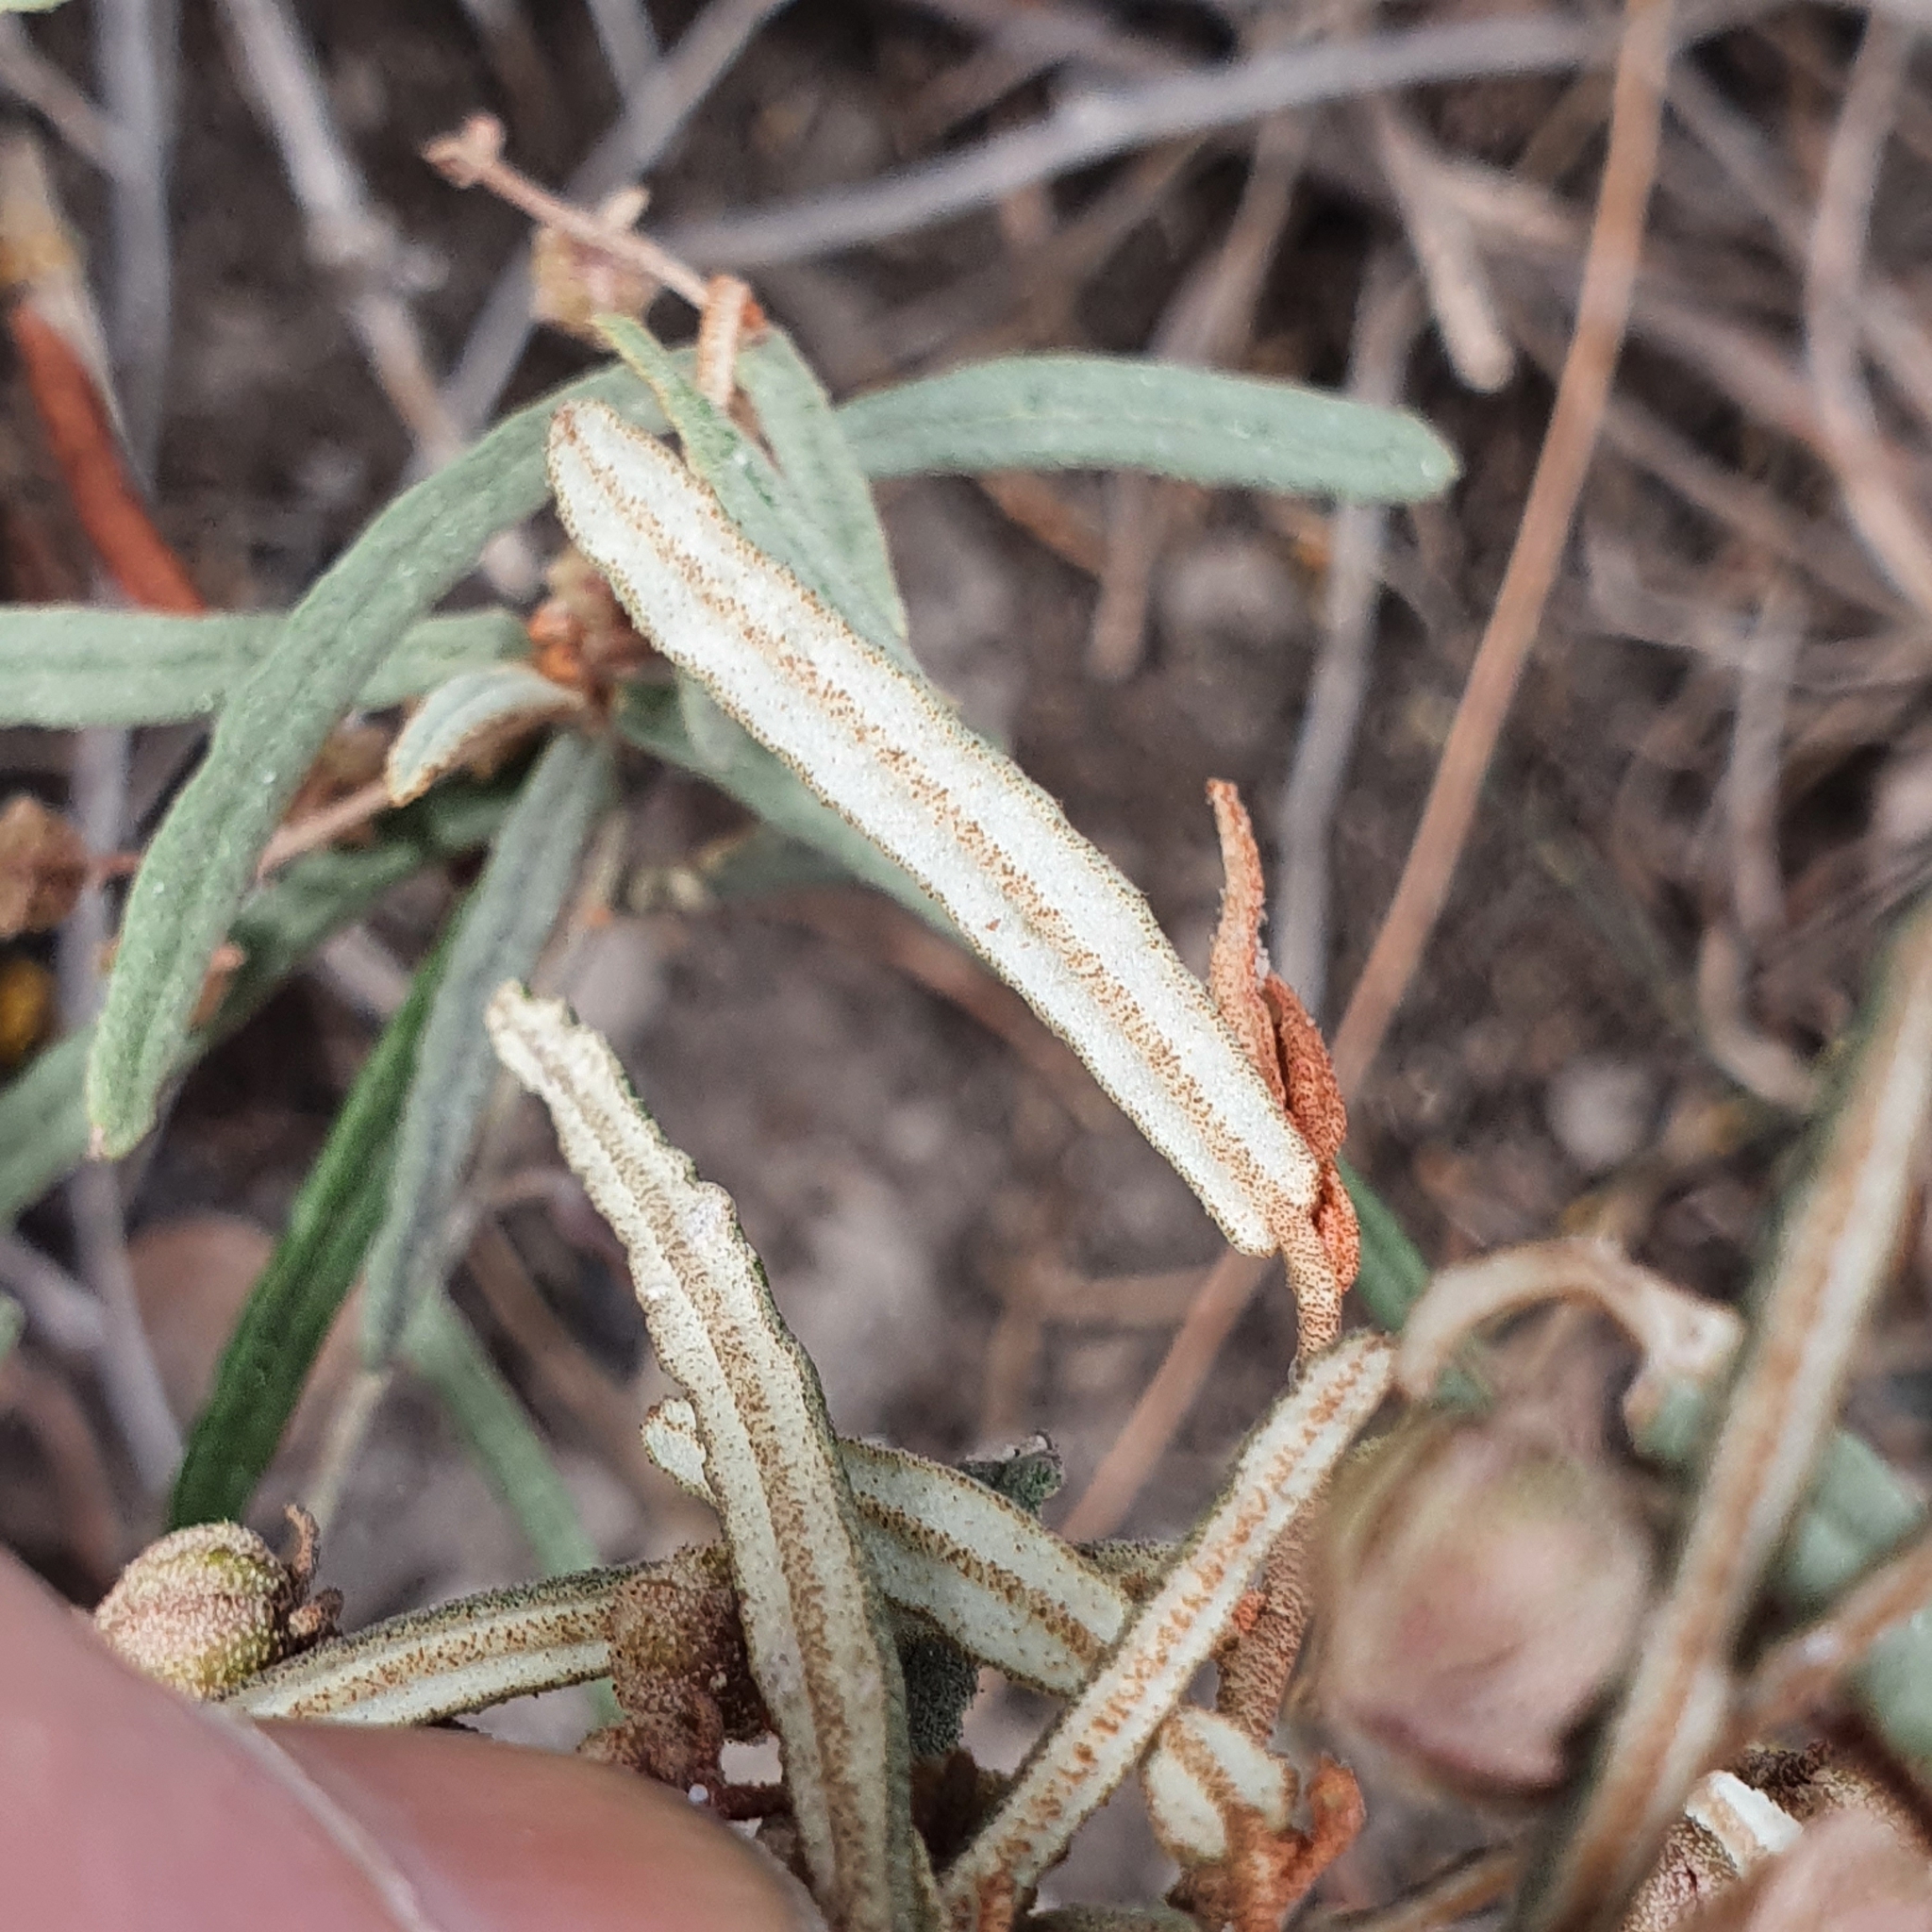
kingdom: Plantae
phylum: Tracheophyta
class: Magnoliopsida
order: Malvales
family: Malvaceae
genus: Lasiopetalum
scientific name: Lasiopetalum baueri
